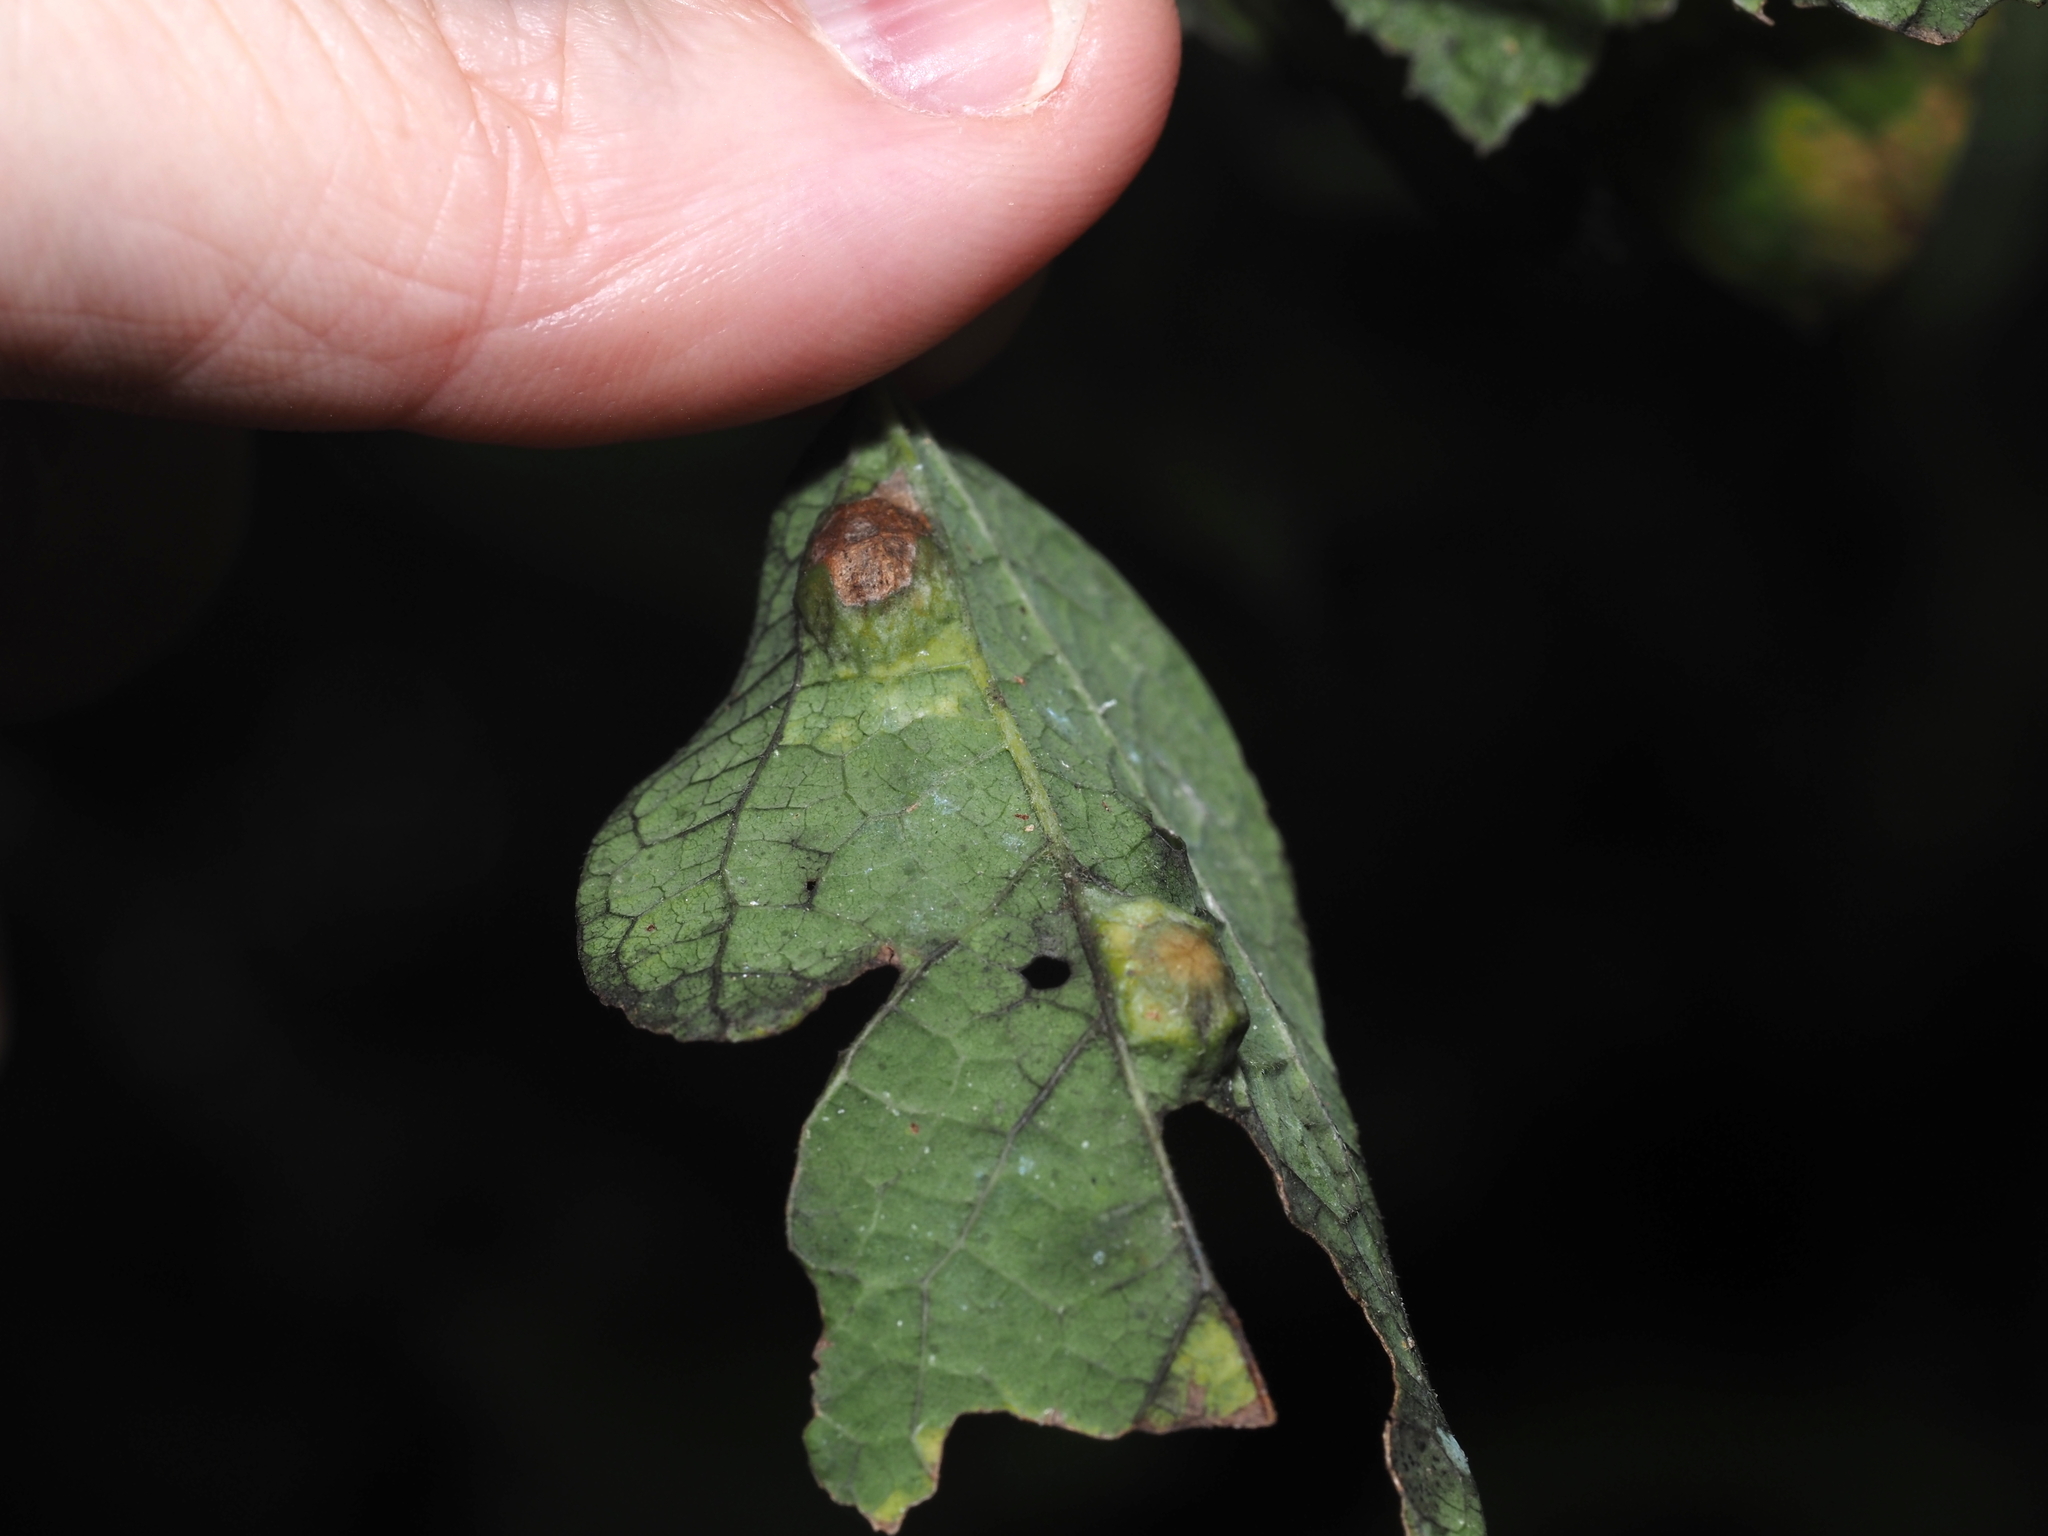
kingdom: Animalia
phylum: Arthropoda
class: Insecta
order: Hemiptera
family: Aphalaridae
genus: Pachypsylla
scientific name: Pachypsylla celtidisumbilicus
